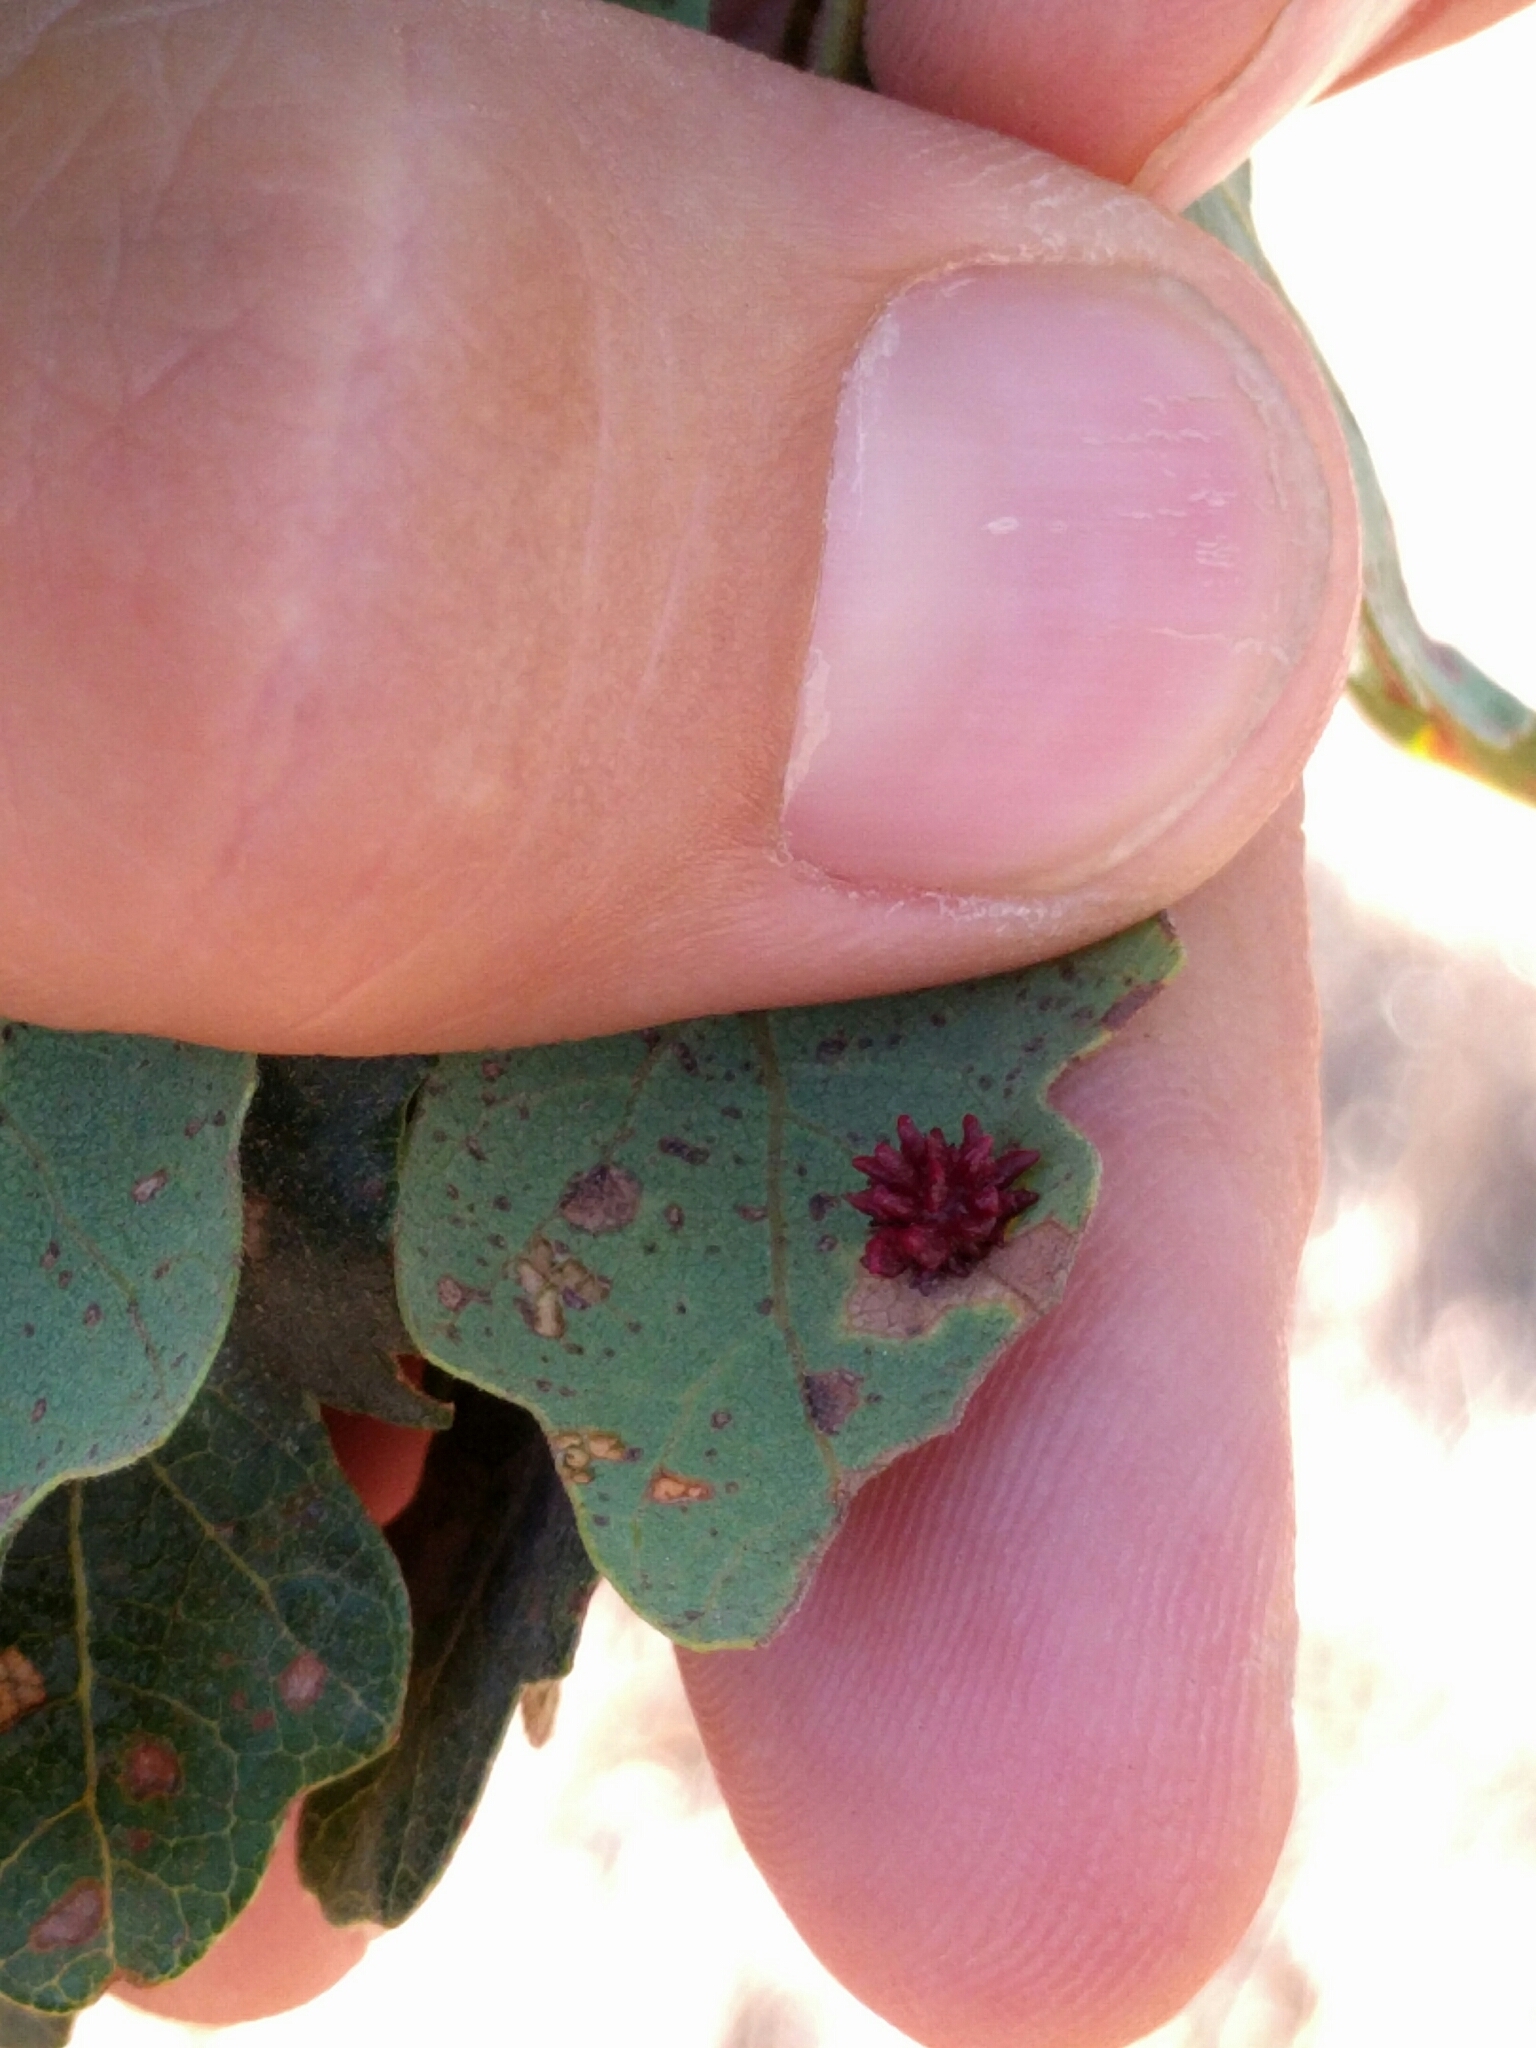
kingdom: Animalia
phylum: Arthropoda
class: Insecta
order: Hymenoptera
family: Cynipidae
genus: Cynips
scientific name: Cynips
